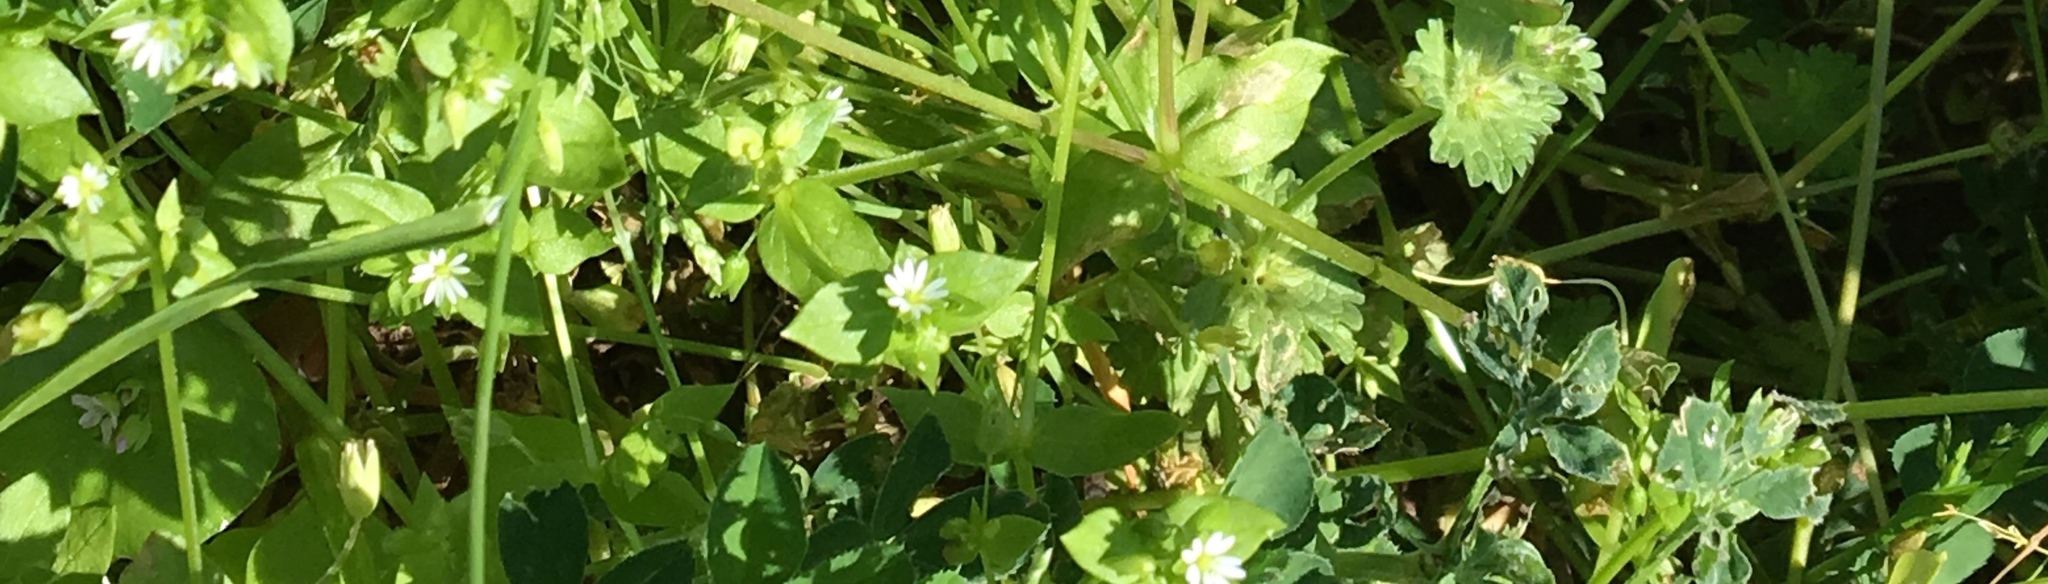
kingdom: Plantae
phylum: Tracheophyta
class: Magnoliopsida
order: Caryophyllales
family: Caryophyllaceae
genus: Stellaria
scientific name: Stellaria media
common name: Common chickweed
